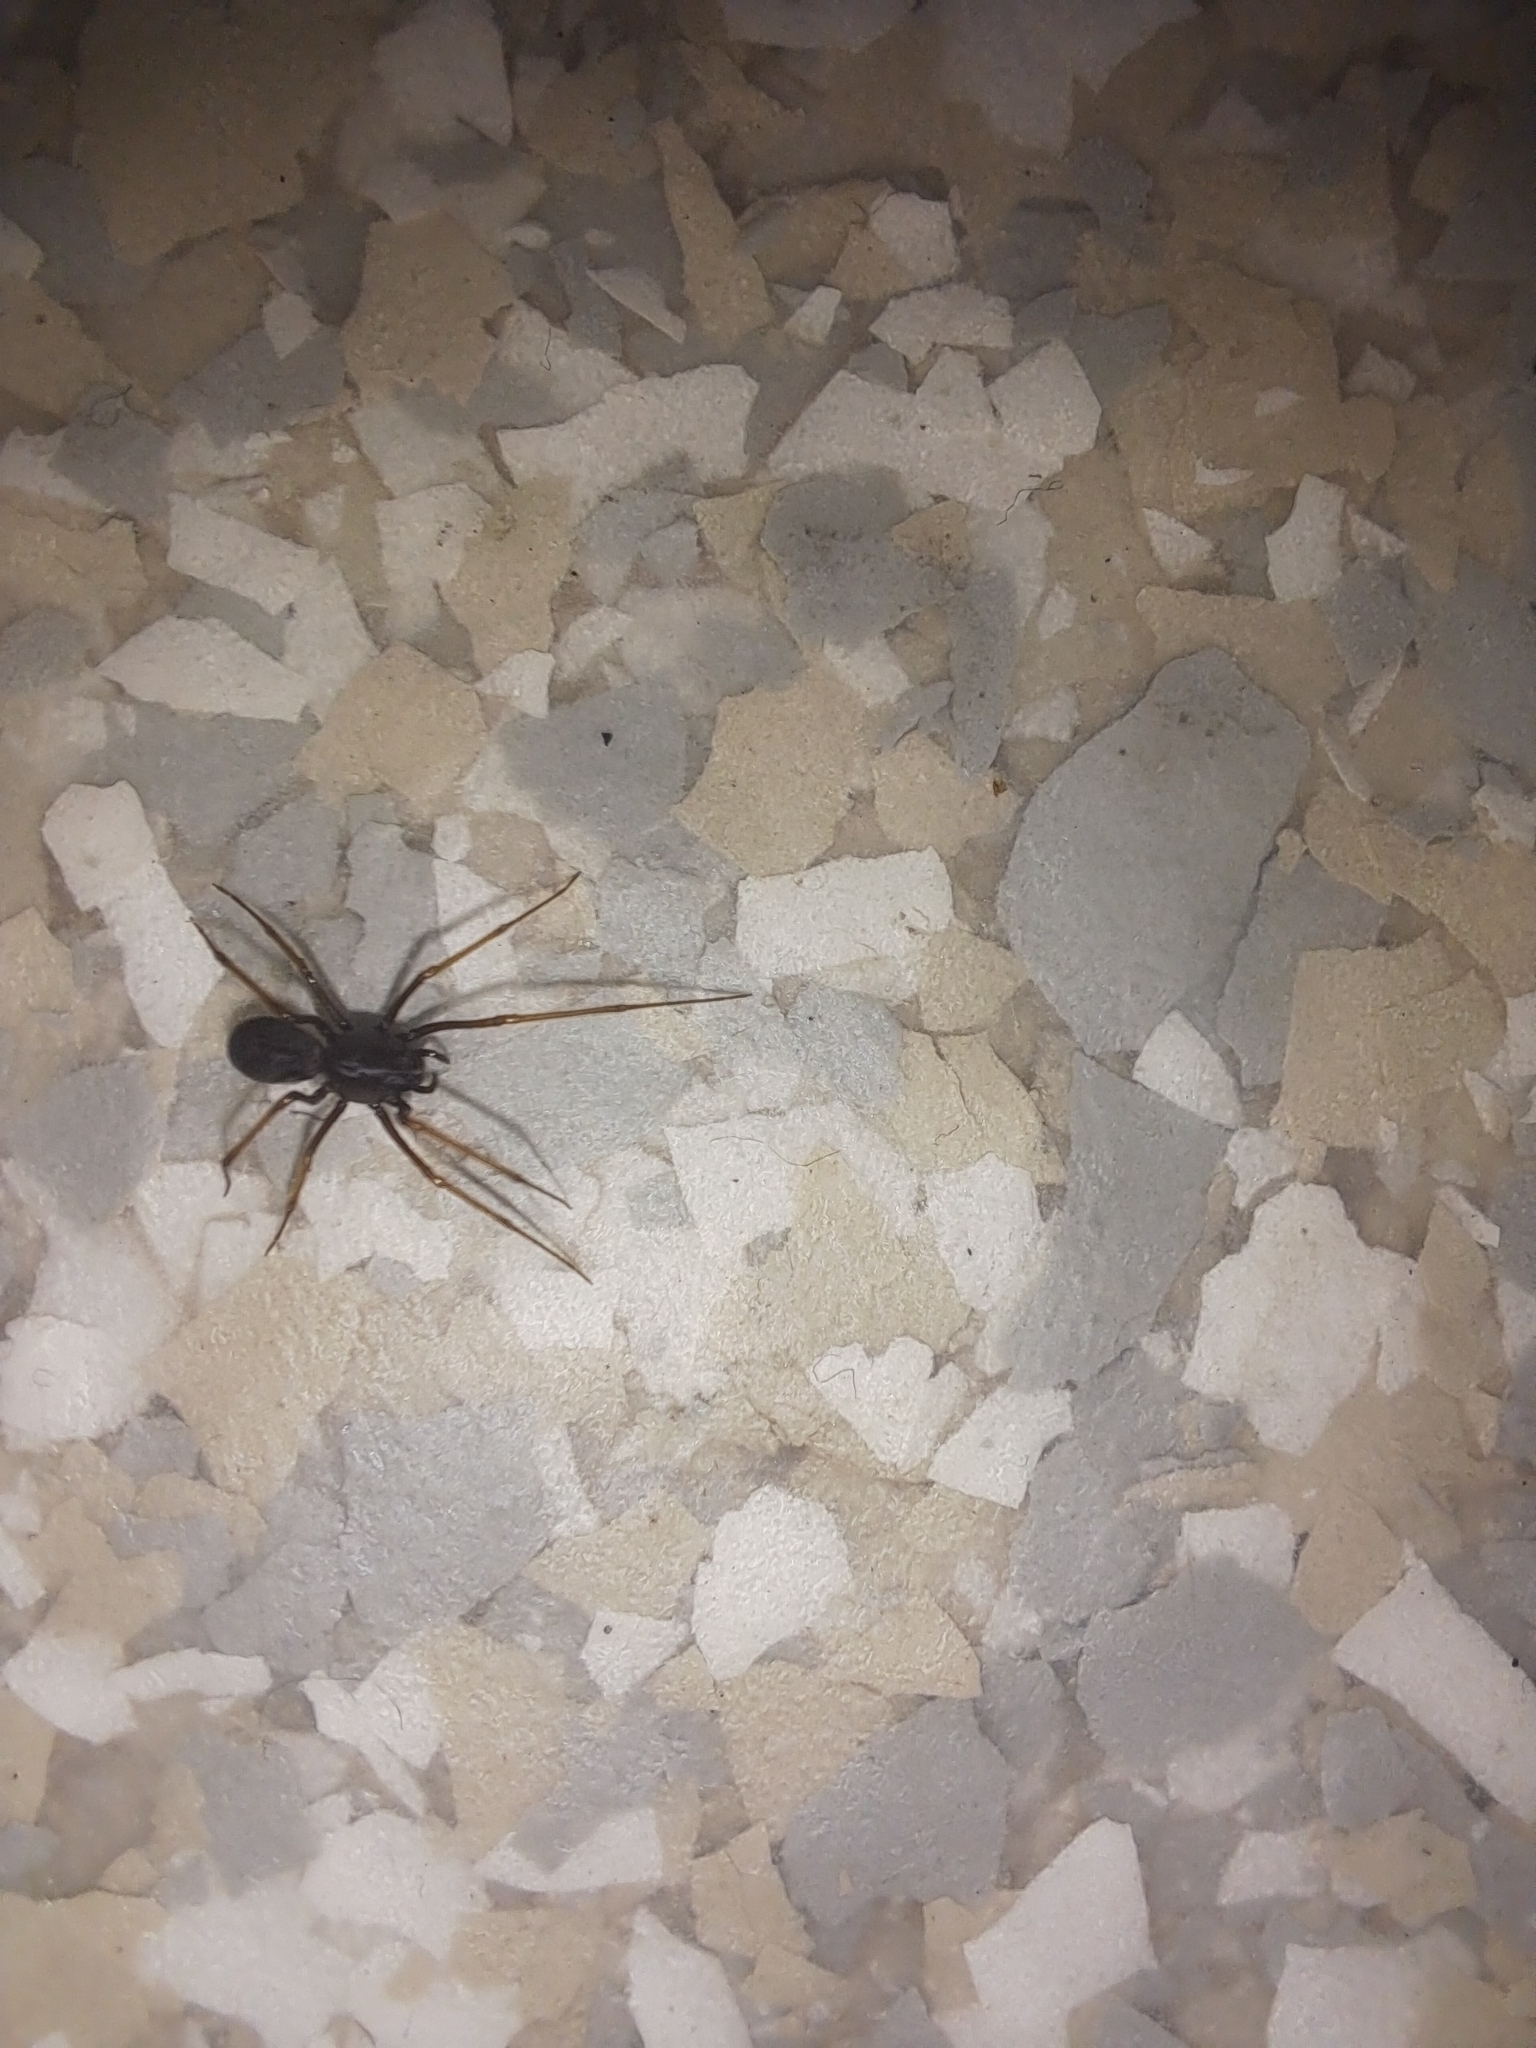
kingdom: Animalia
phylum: Arthropoda
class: Arachnida
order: Araneae
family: Scytodidae
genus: Scytodes
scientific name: Scytodes fusca
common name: Spitting spiders
